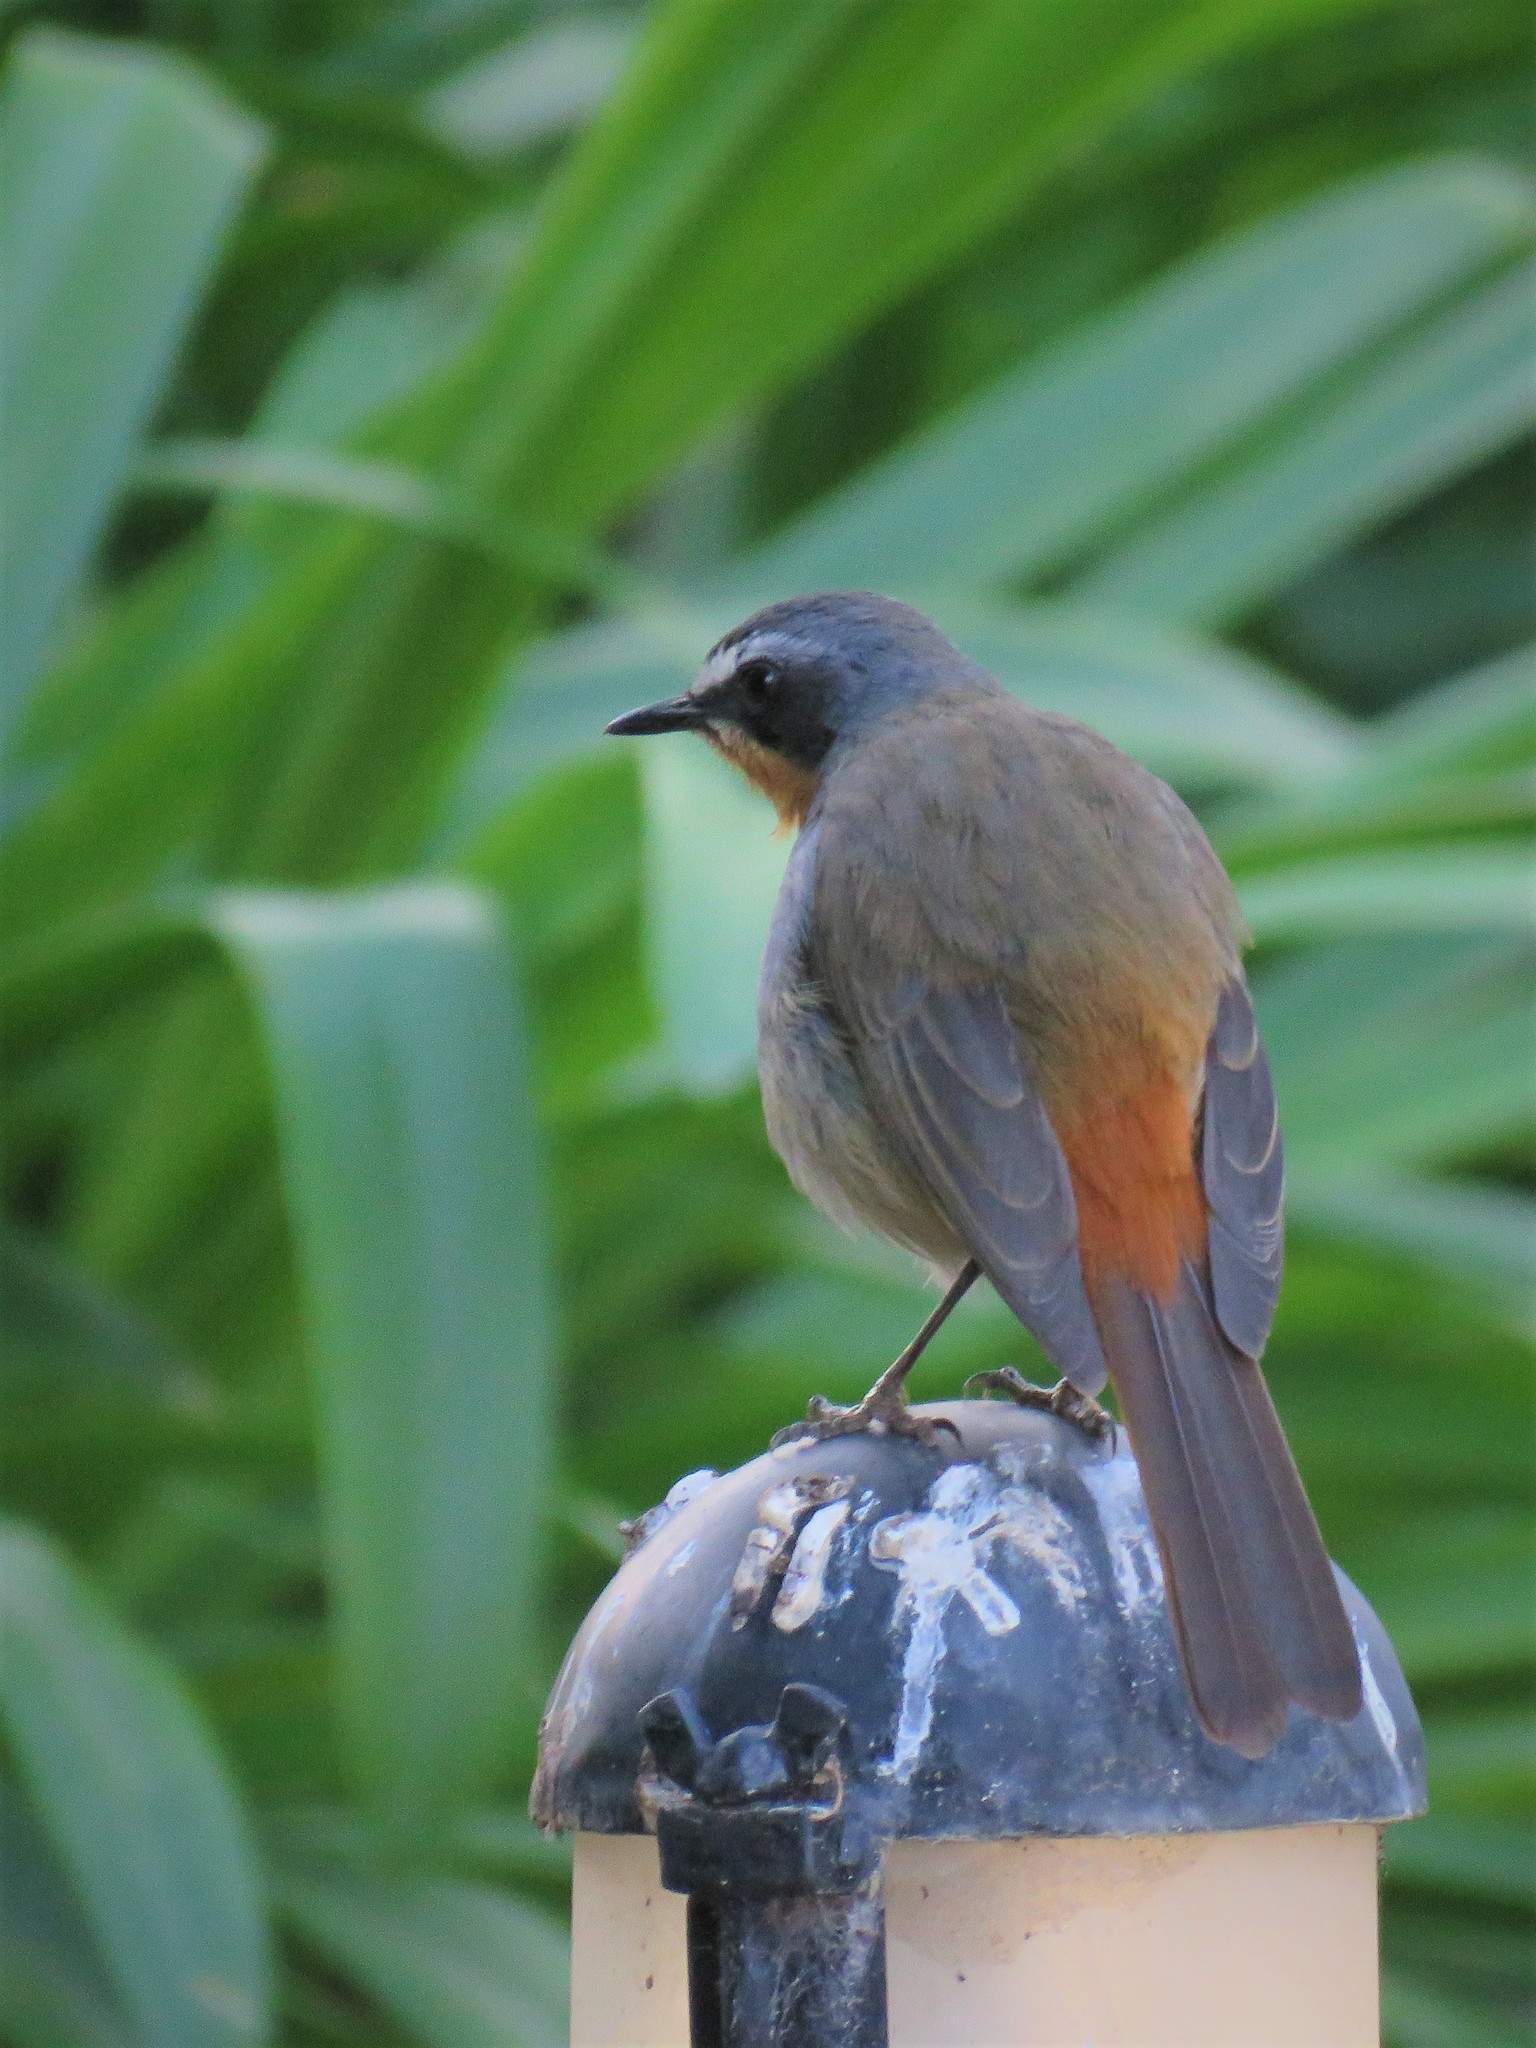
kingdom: Animalia
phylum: Chordata
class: Aves
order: Passeriformes
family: Muscicapidae
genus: Cossypha
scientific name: Cossypha caffra
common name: Cape robin-chat
